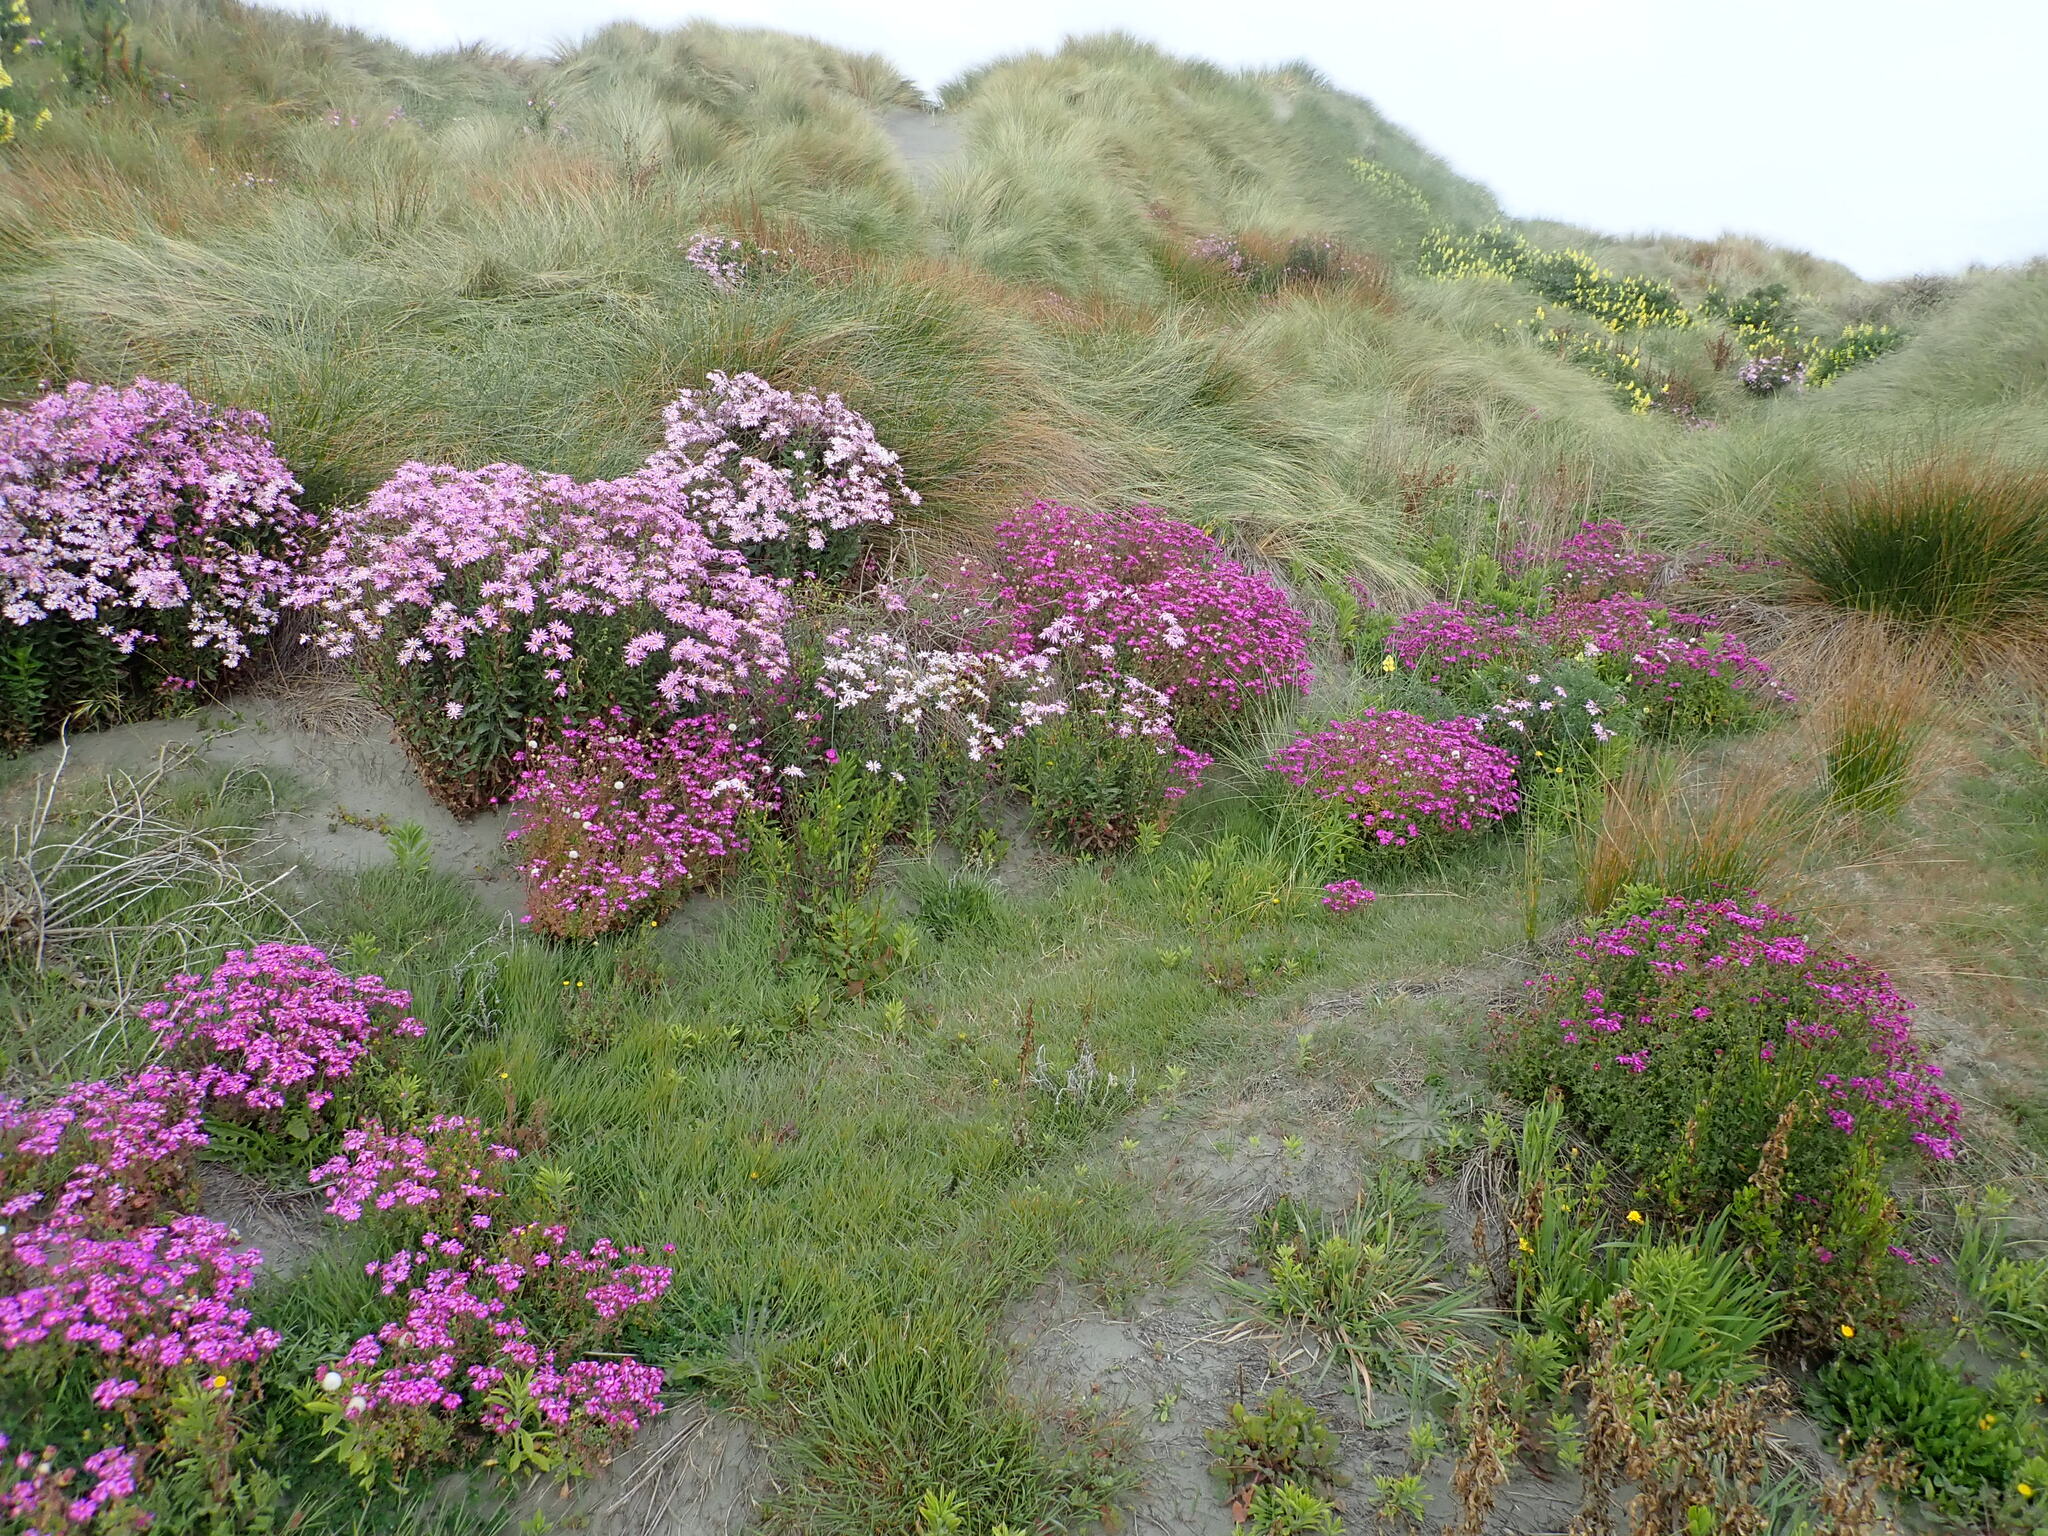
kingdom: Plantae
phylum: Tracheophyta
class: Magnoliopsida
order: Asterales
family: Asteraceae
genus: Senecio
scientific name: Senecio elegans
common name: Purple groundsel
